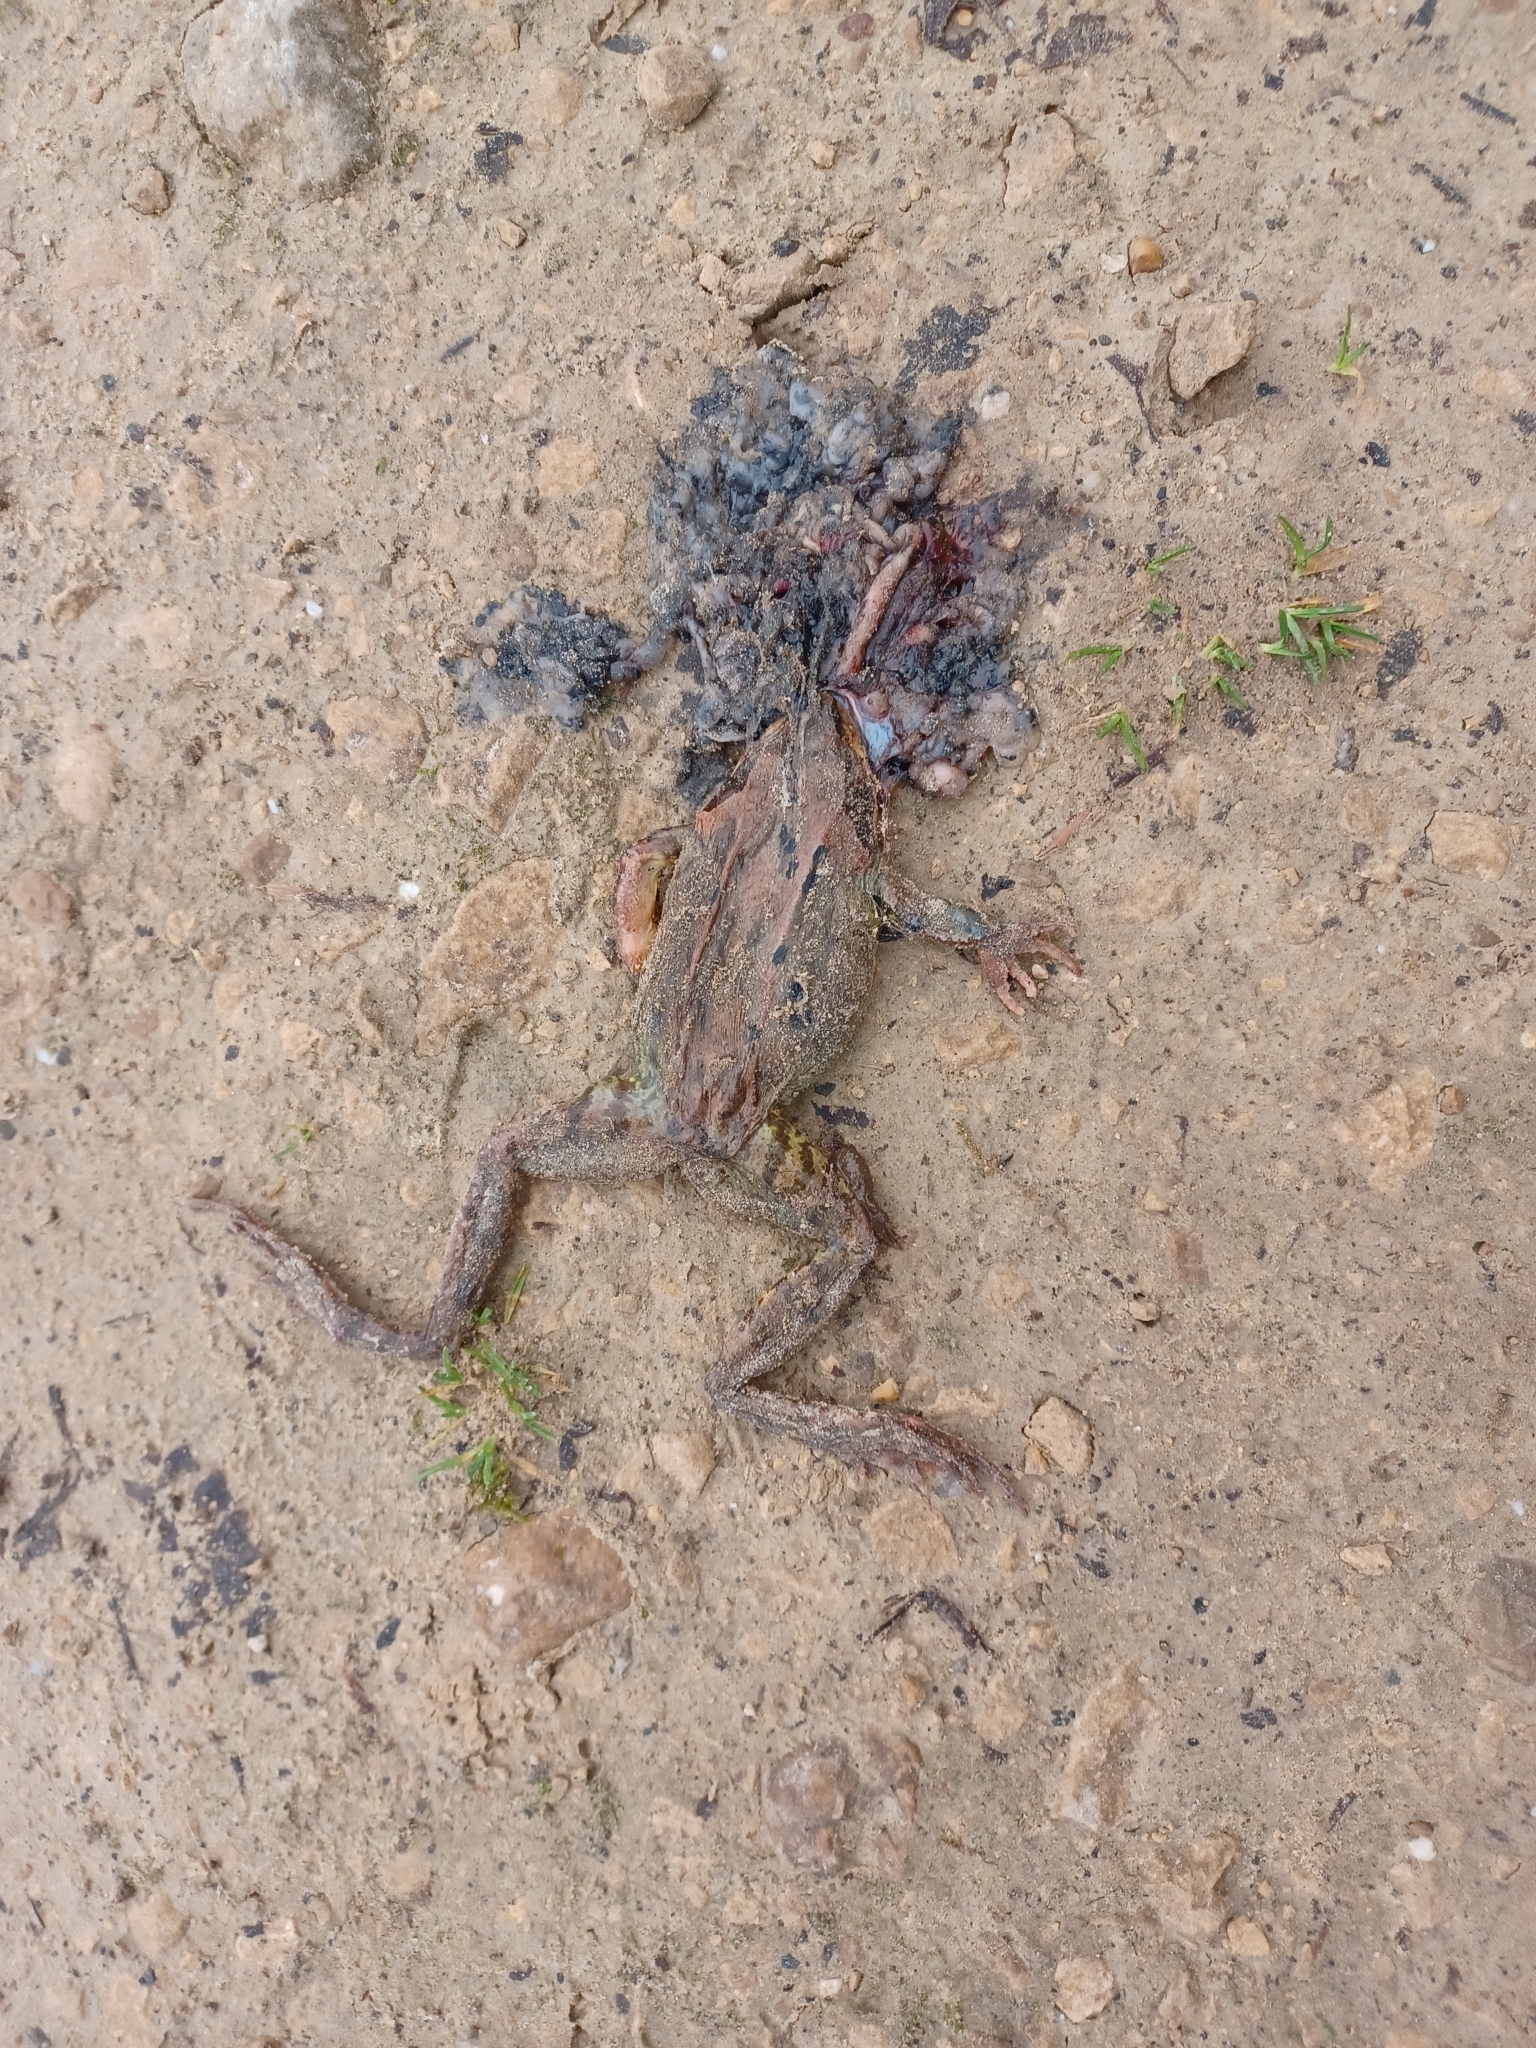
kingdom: Animalia
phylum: Chordata
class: Amphibia
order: Anura
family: Ranidae
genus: Rana
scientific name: Rana temporaria
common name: Common frog
